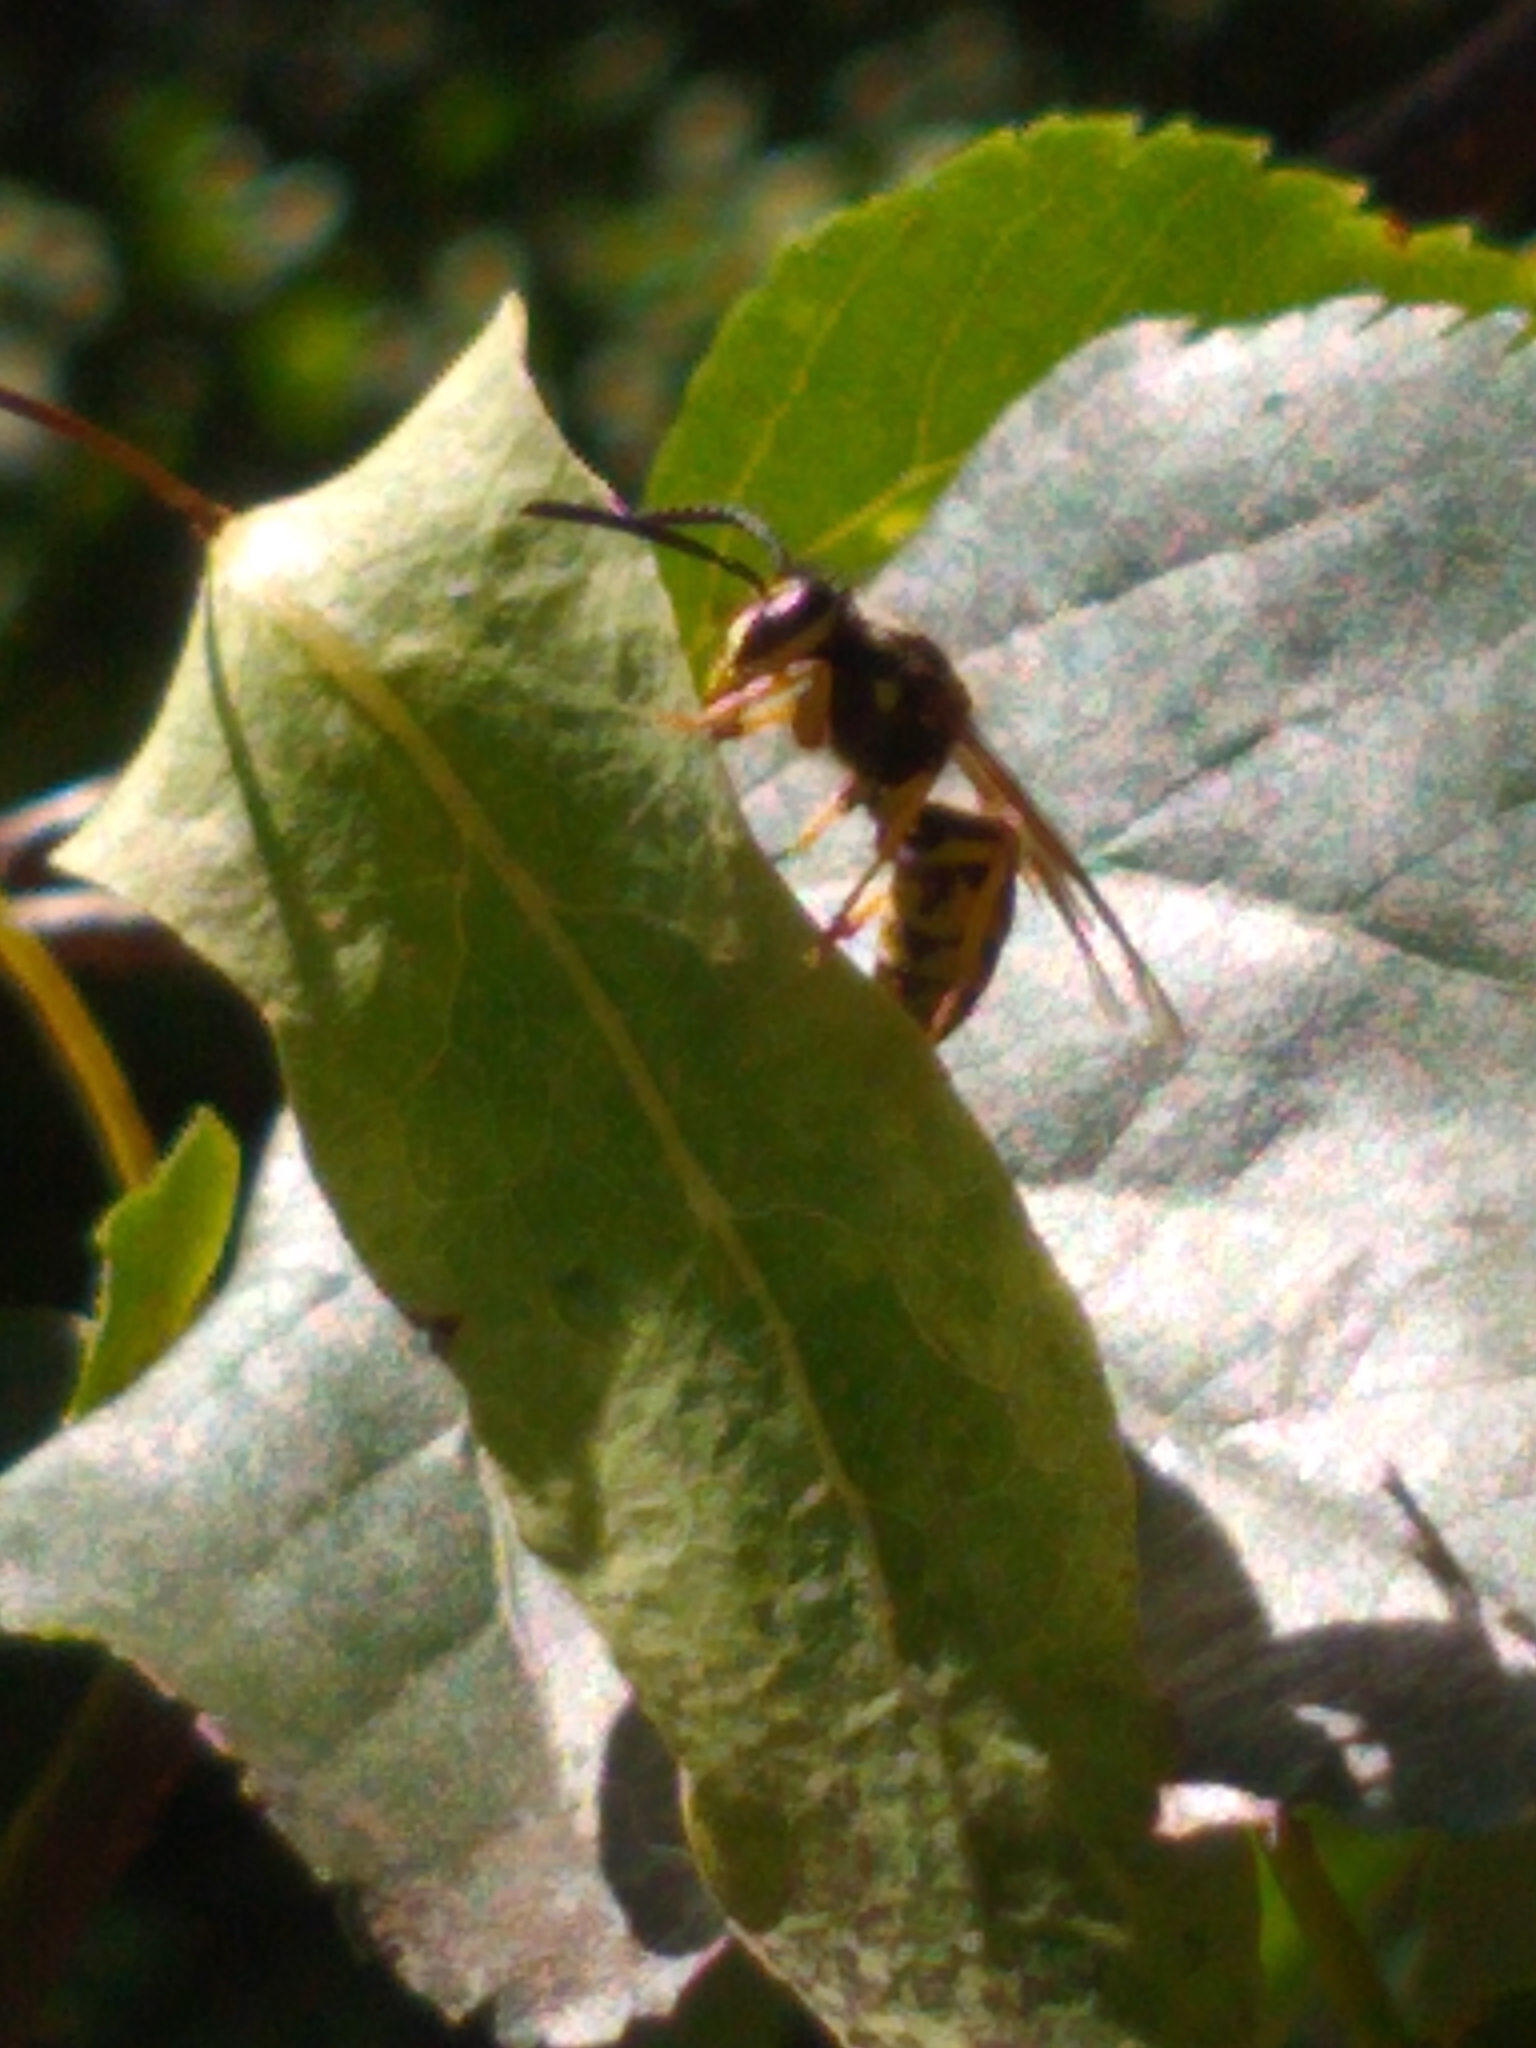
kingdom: Animalia
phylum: Arthropoda
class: Insecta
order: Hymenoptera
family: Vespidae
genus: Vespula
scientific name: Vespula
